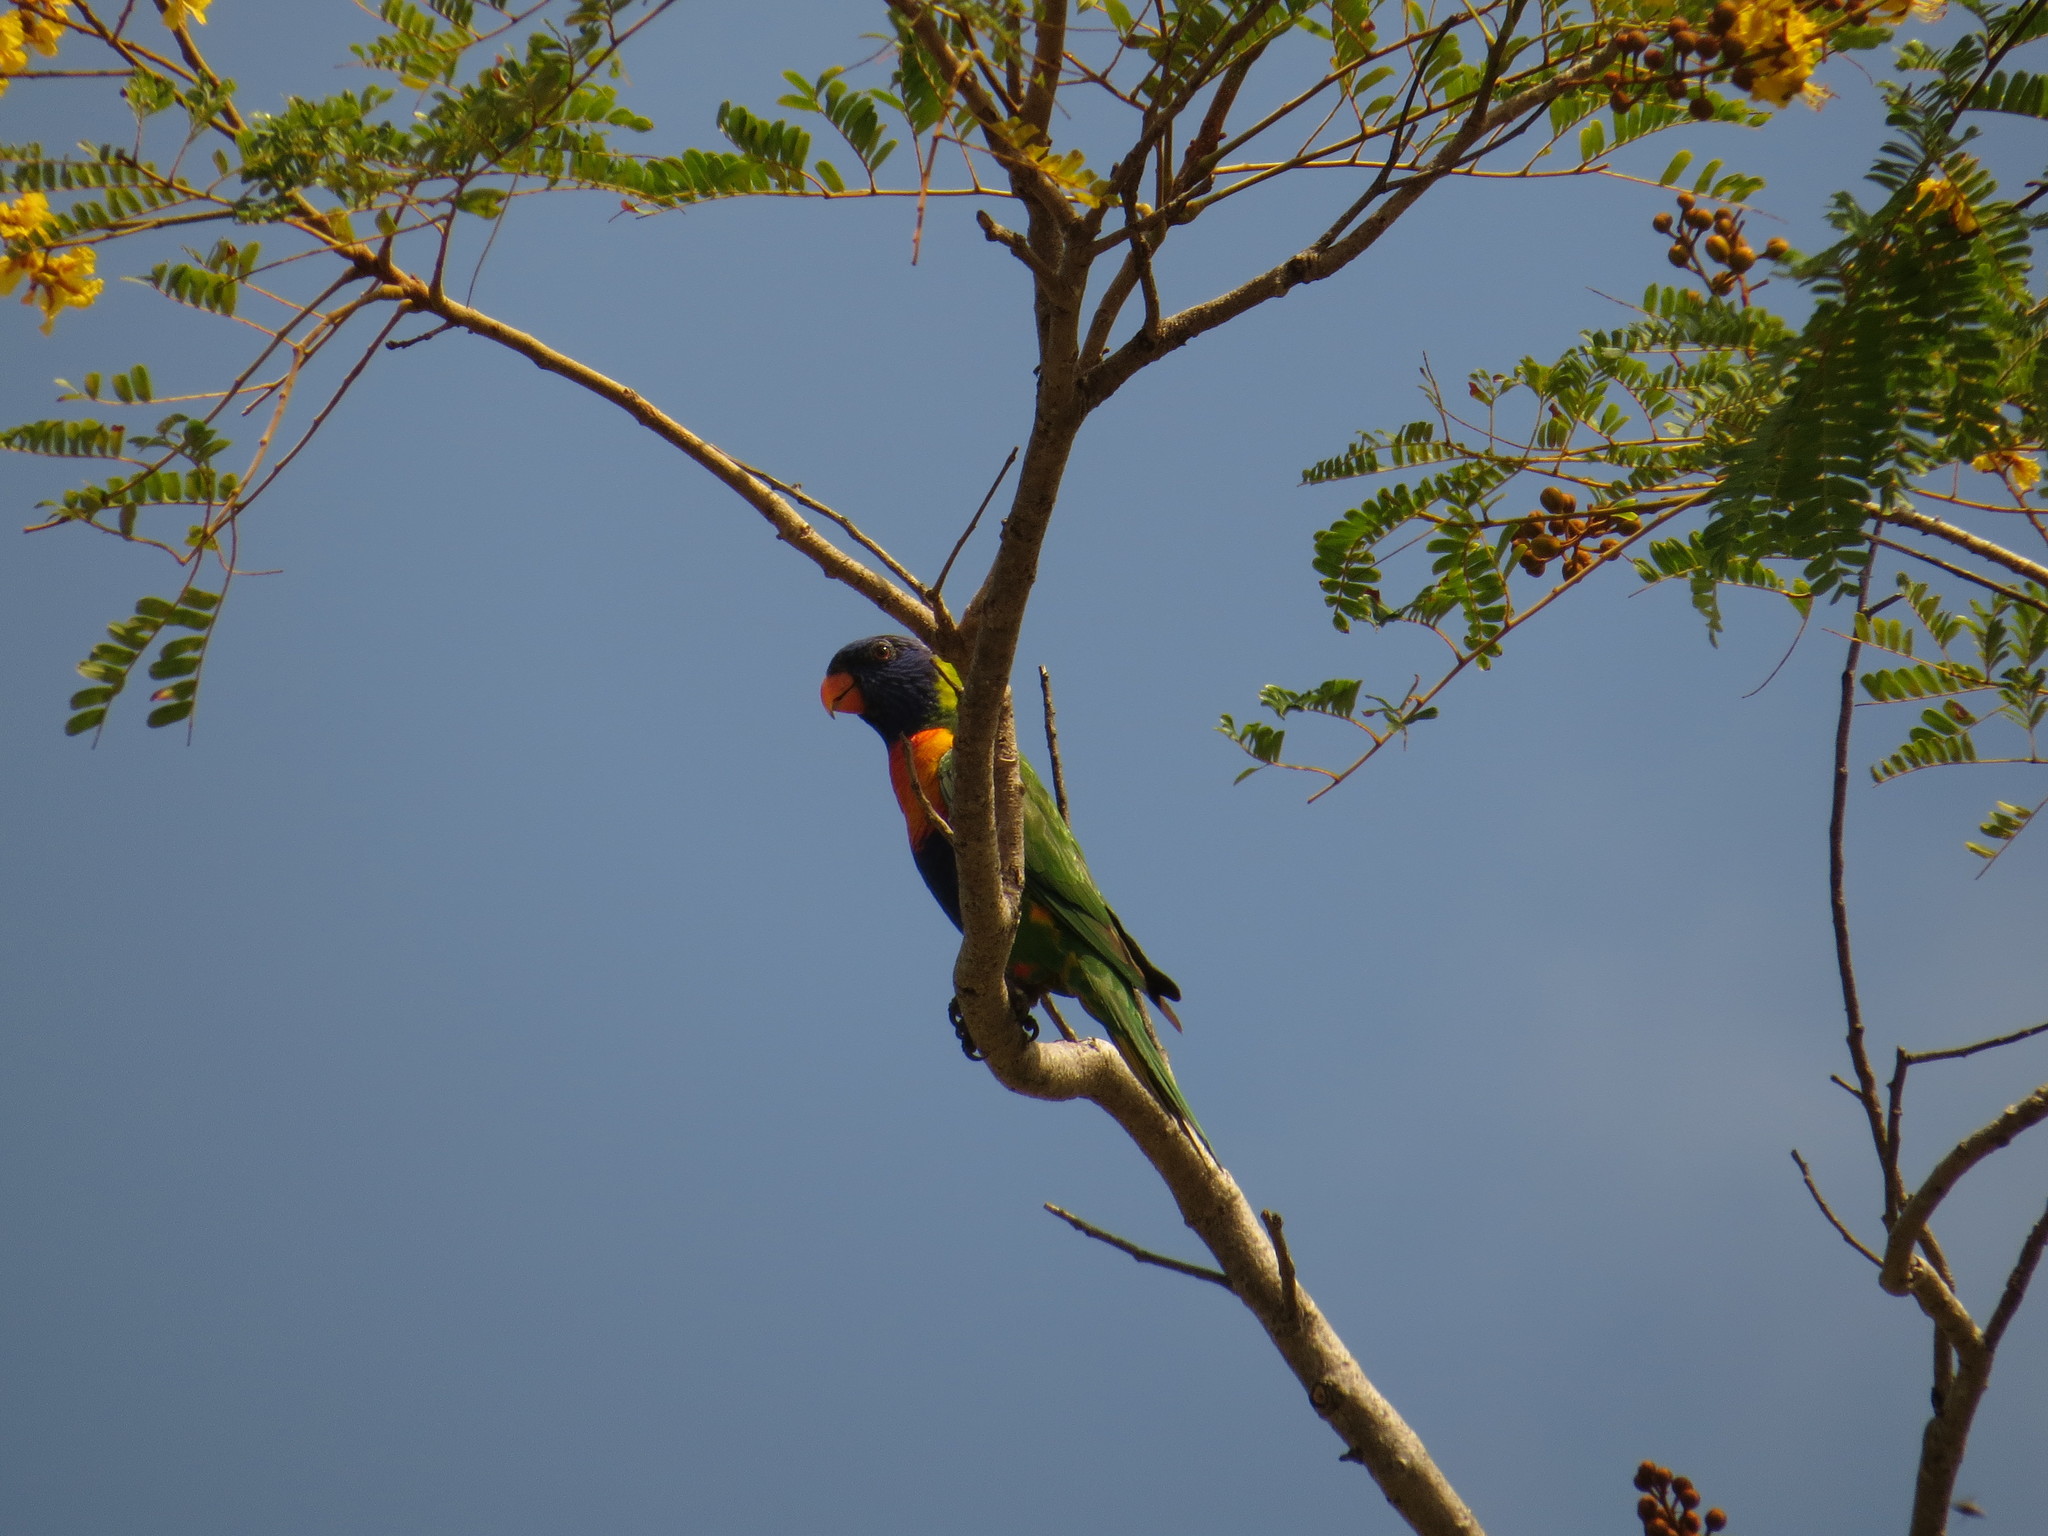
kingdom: Animalia
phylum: Chordata
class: Aves
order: Psittaciformes
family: Psittacidae
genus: Trichoglossus
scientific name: Trichoglossus haematodus
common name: Coconut lorikeet
